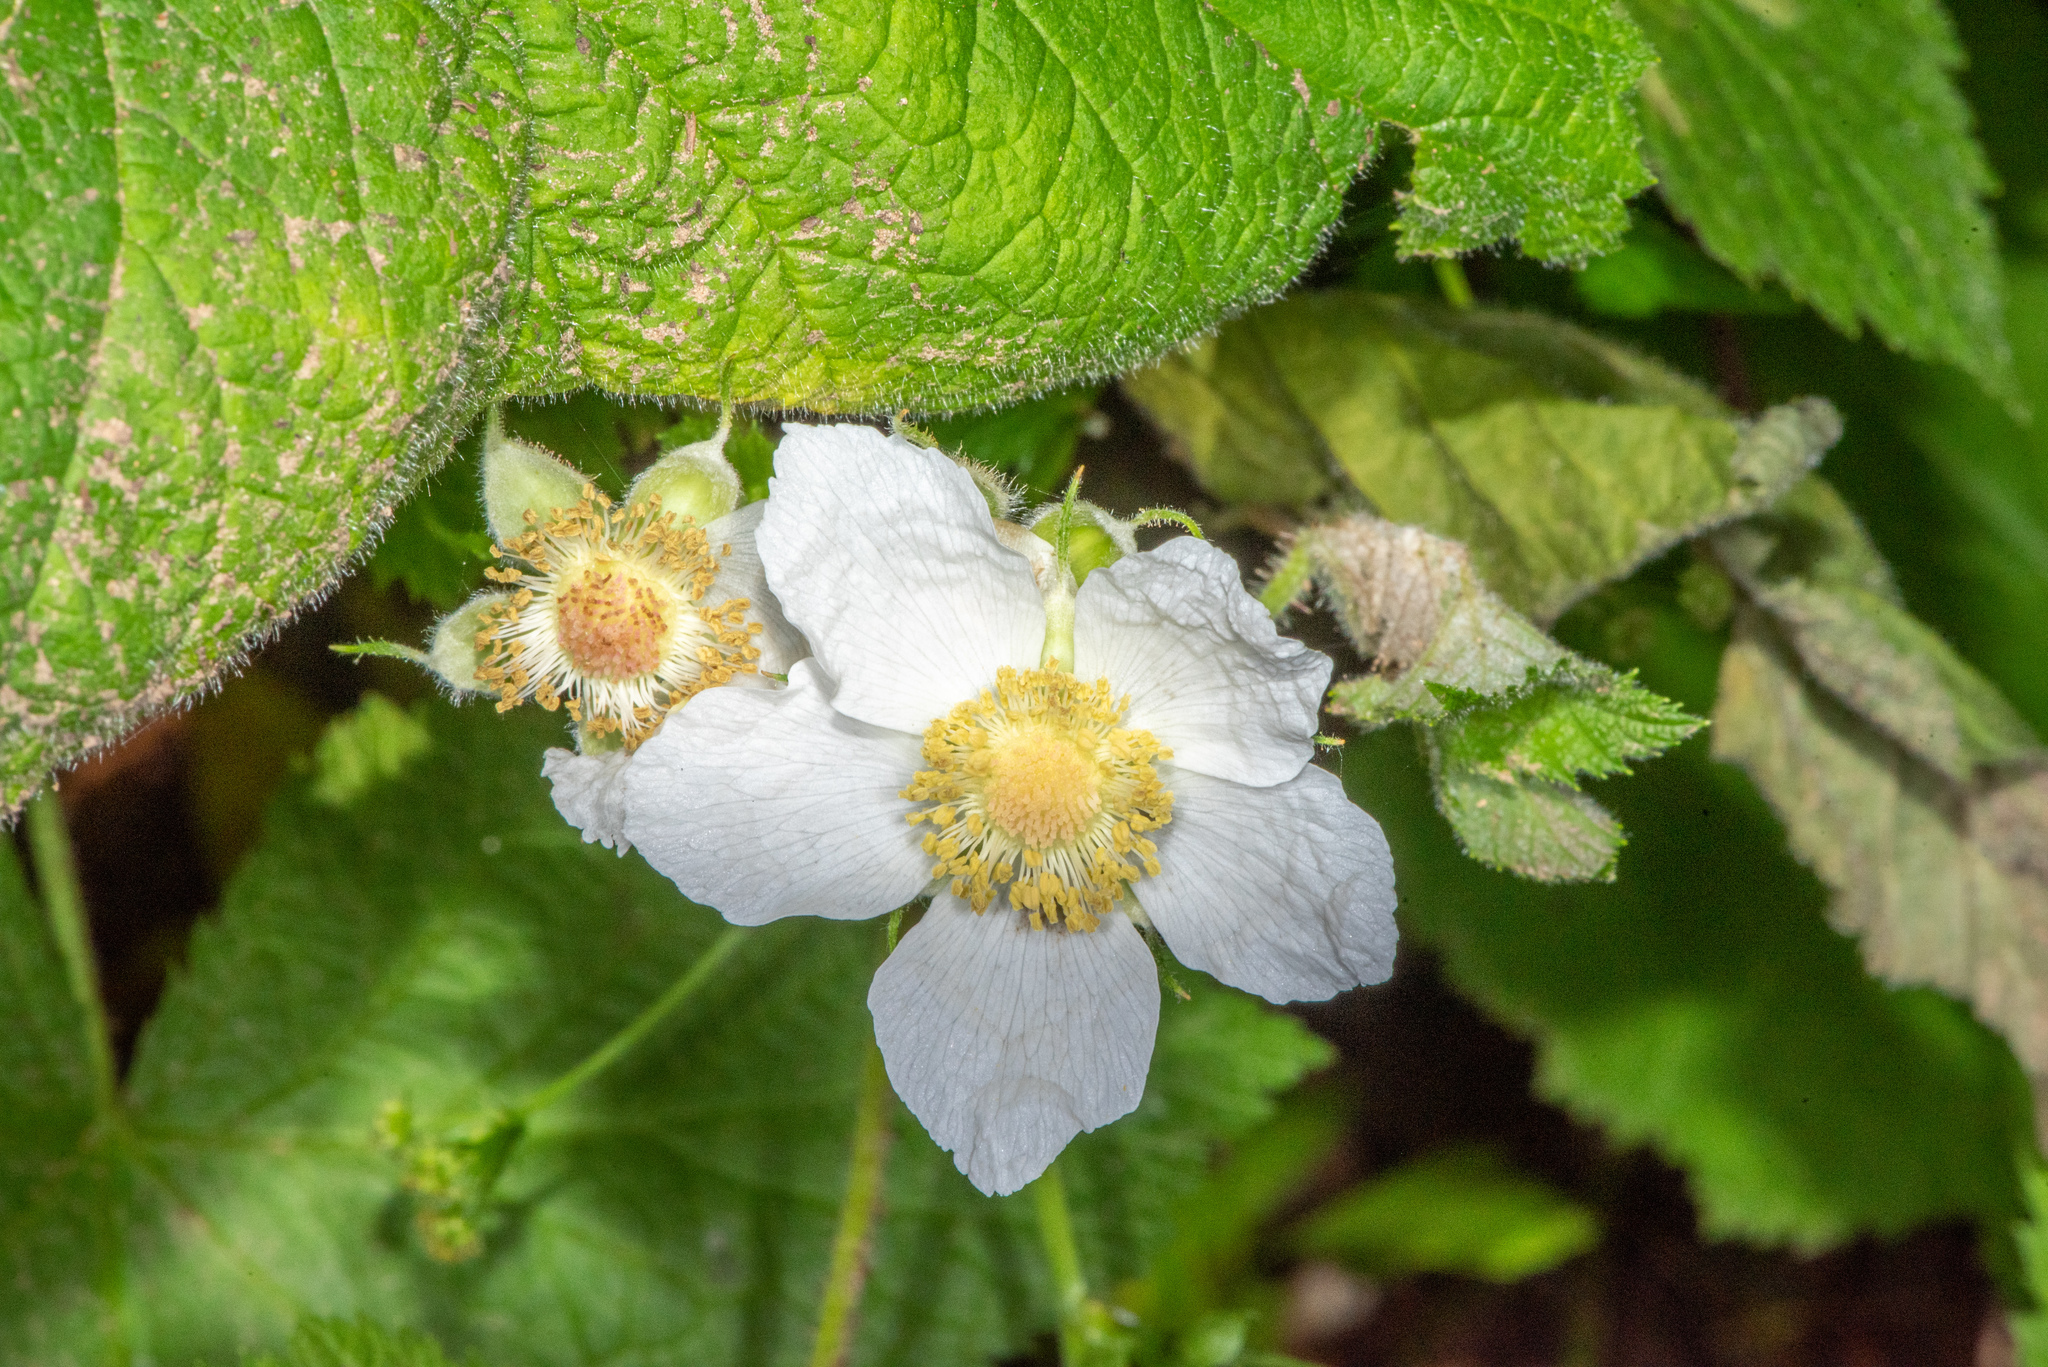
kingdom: Plantae
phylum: Tracheophyta
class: Magnoliopsida
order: Rosales
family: Rosaceae
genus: Rubus
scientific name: Rubus parviflorus
